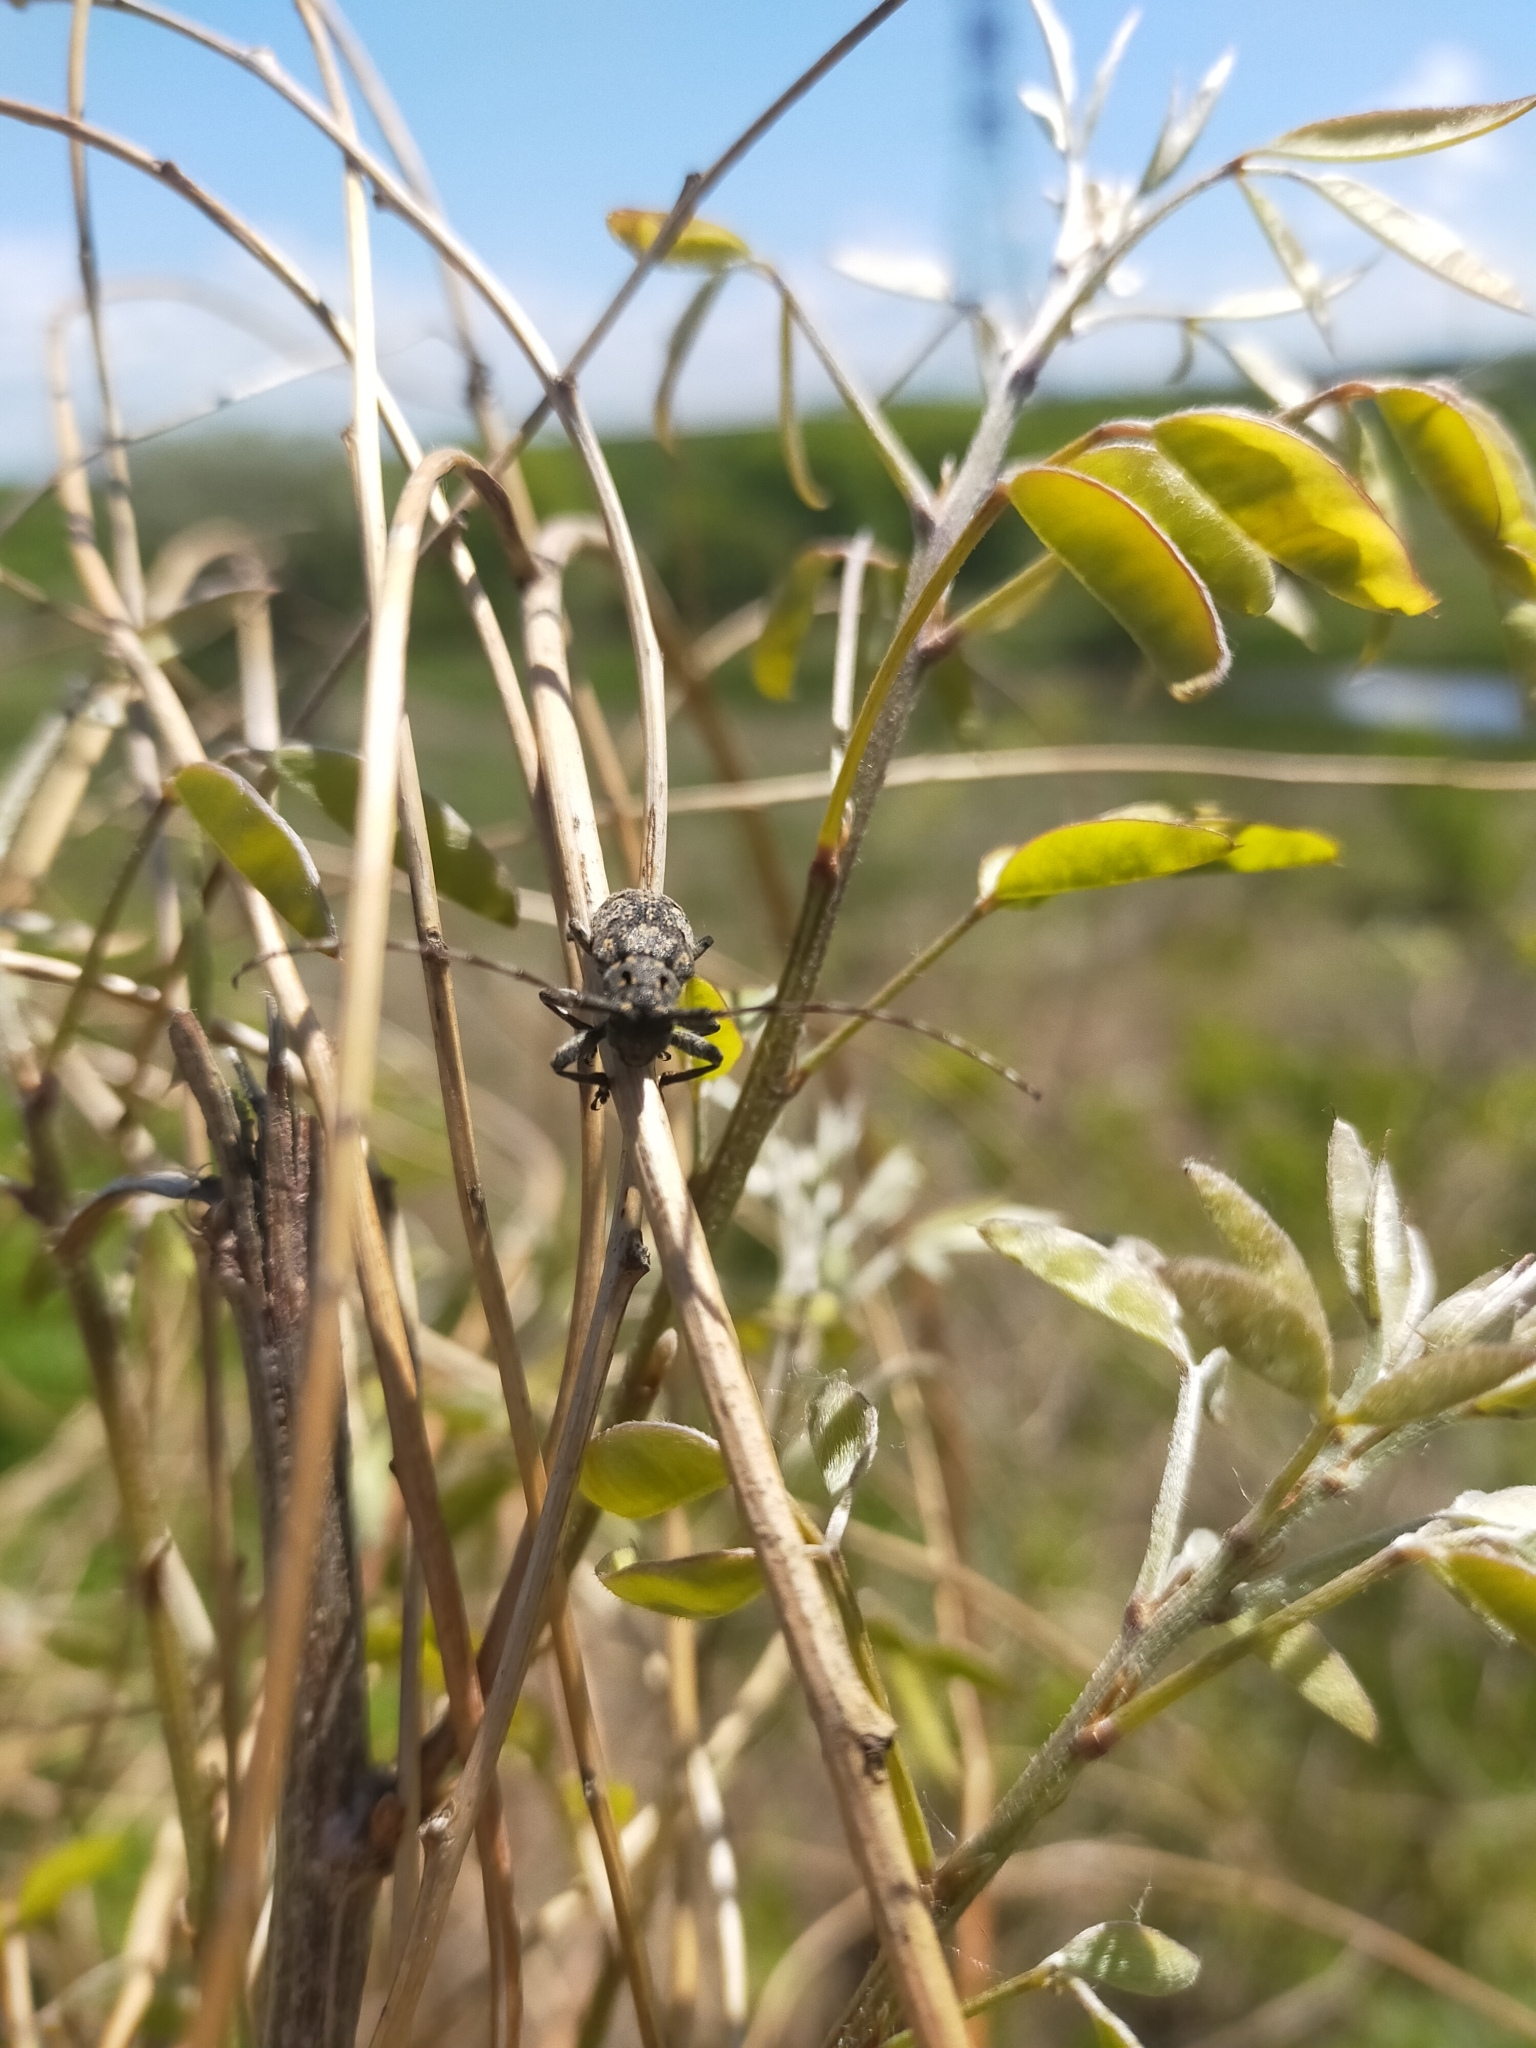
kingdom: Animalia
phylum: Arthropoda
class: Insecta
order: Coleoptera
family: Cerambycidae
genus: Mesosa
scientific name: Mesosa myops
